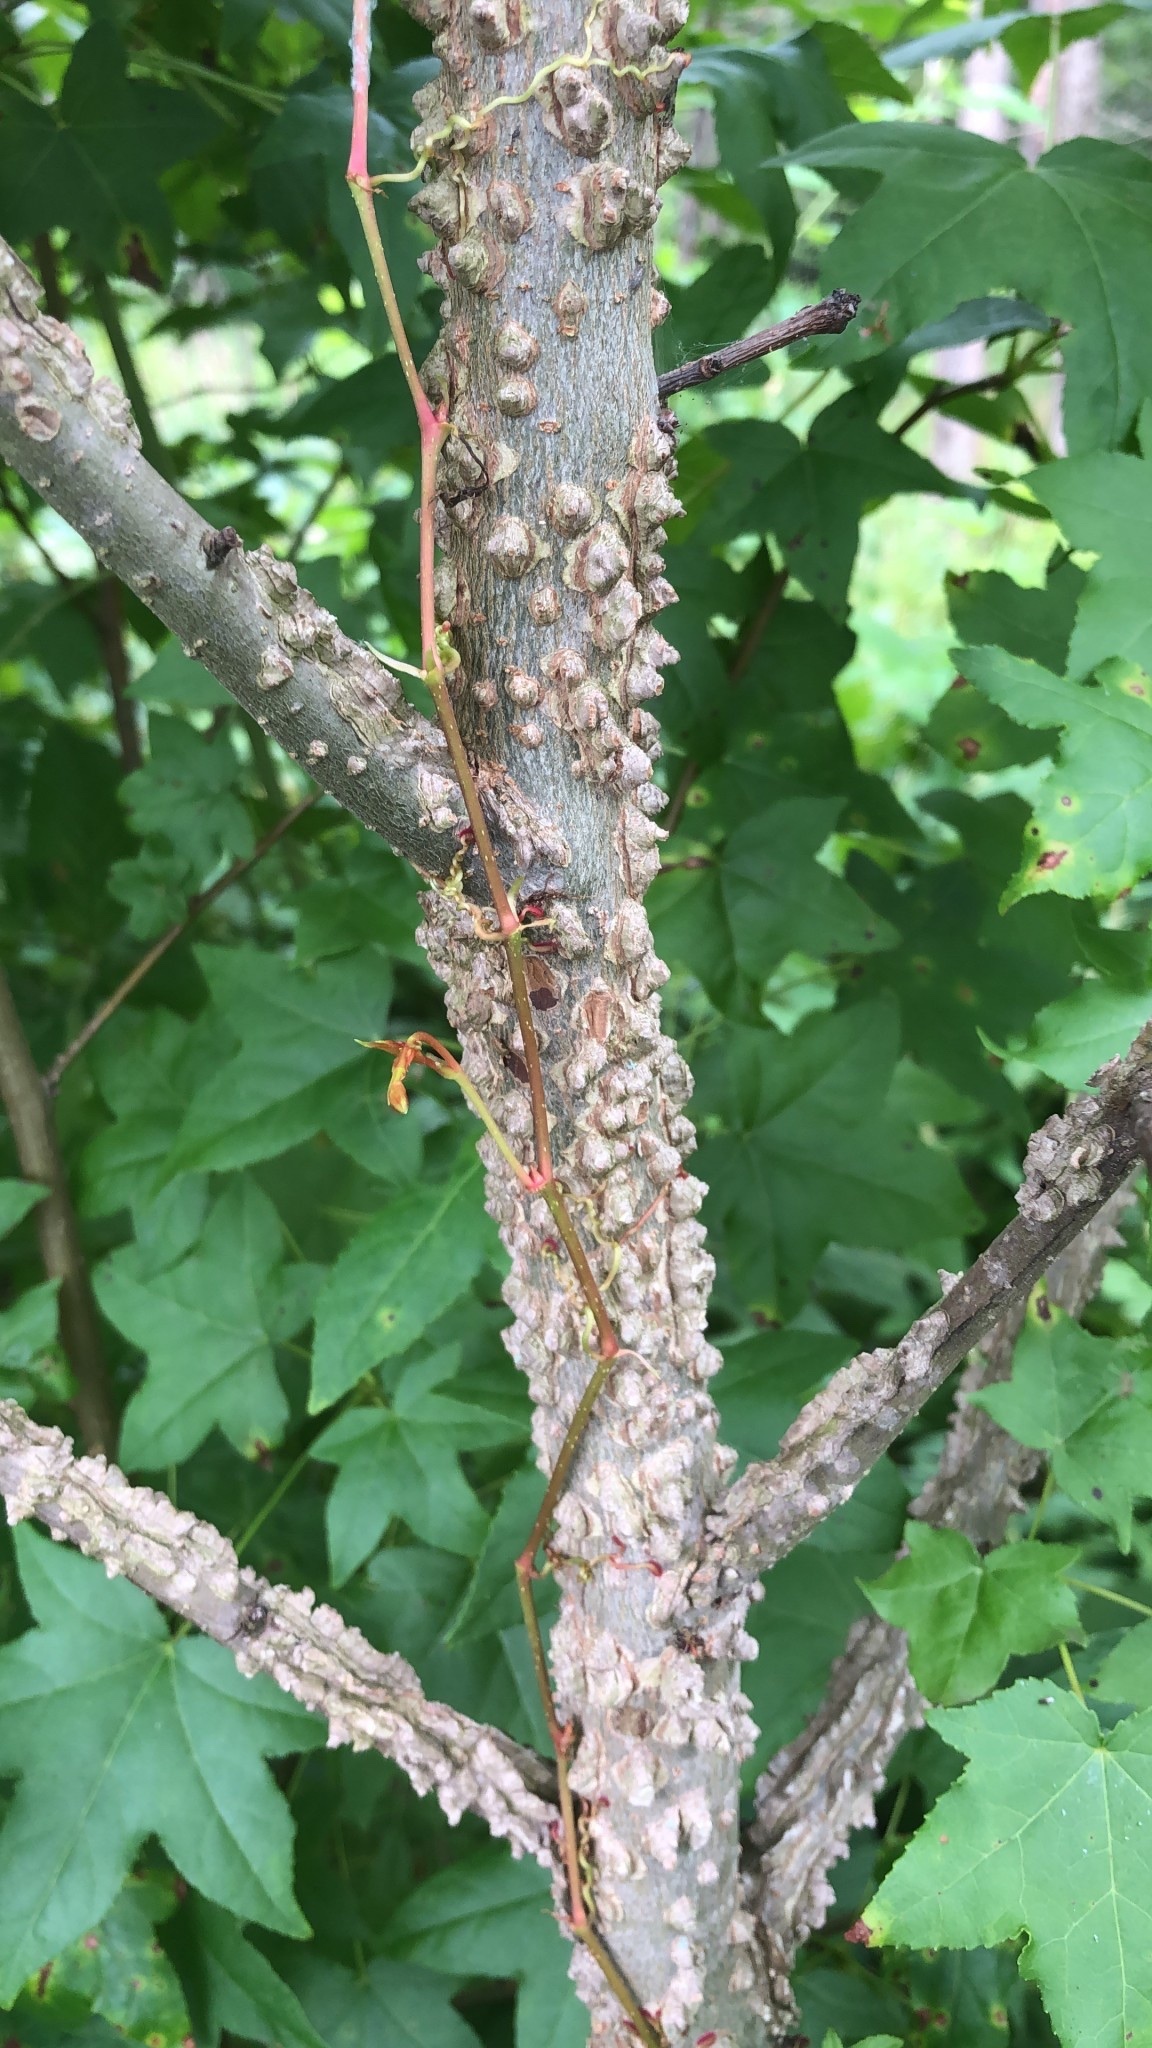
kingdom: Plantae
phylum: Tracheophyta
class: Magnoliopsida
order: Saxifragales
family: Altingiaceae
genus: Liquidambar
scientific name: Liquidambar styraciflua
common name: Sweet gum
